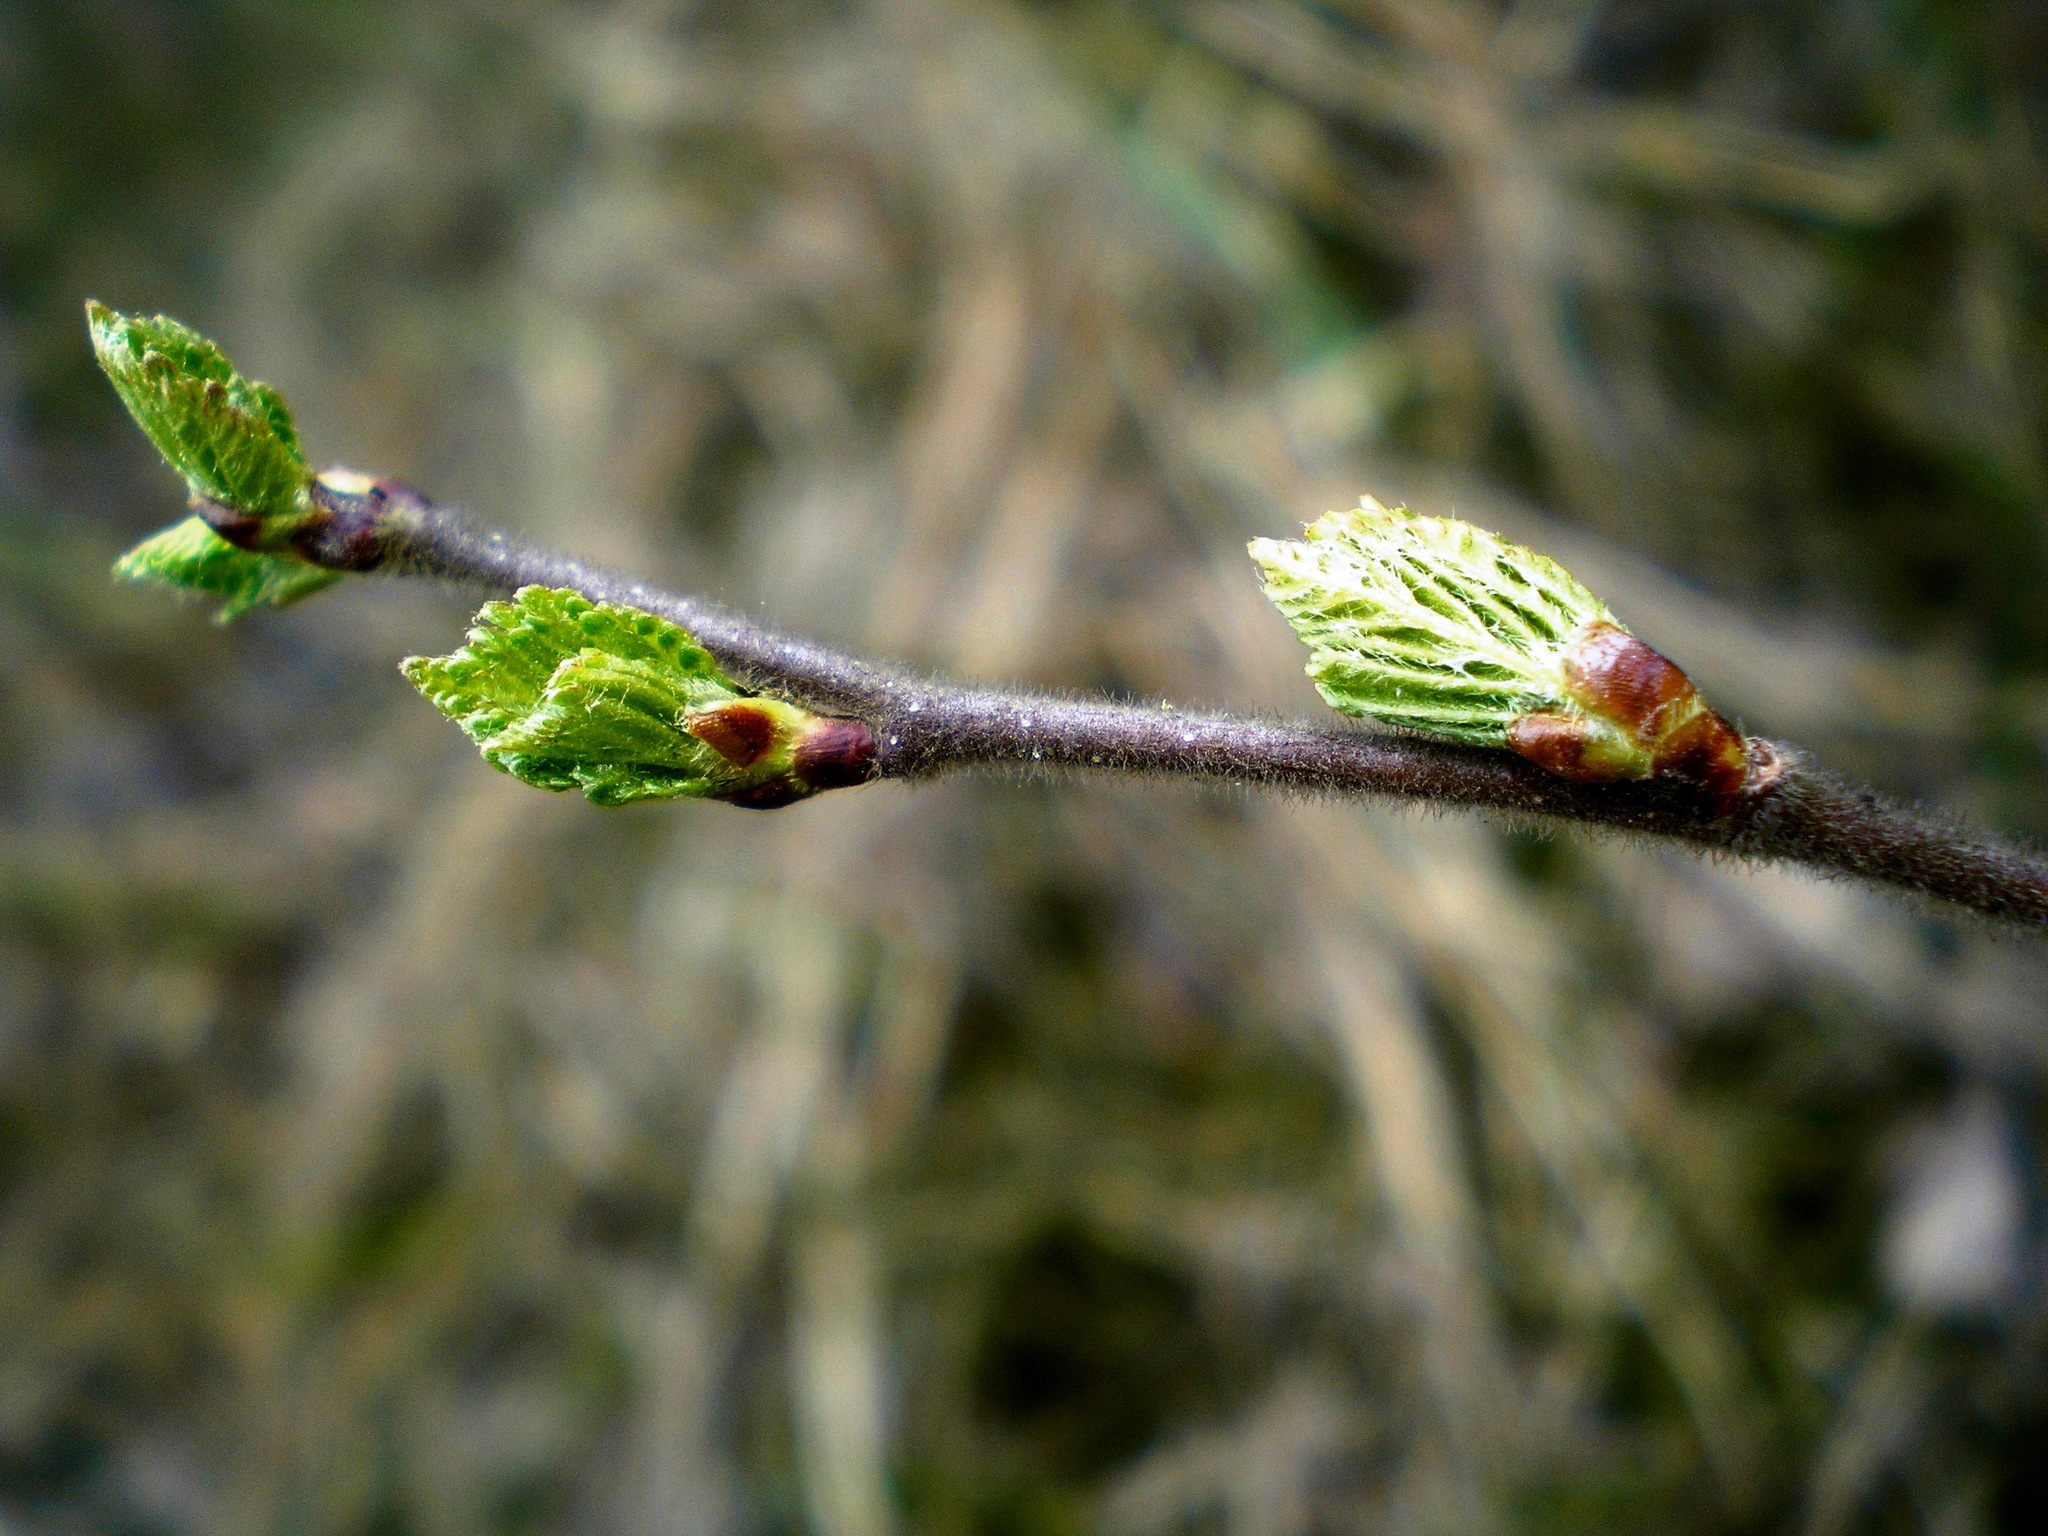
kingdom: Plantae
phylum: Tracheophyta
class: Magnoliopsida
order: Fagales
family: Betulaceae
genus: Betula
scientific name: Betula pubescens
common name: Downy birch
